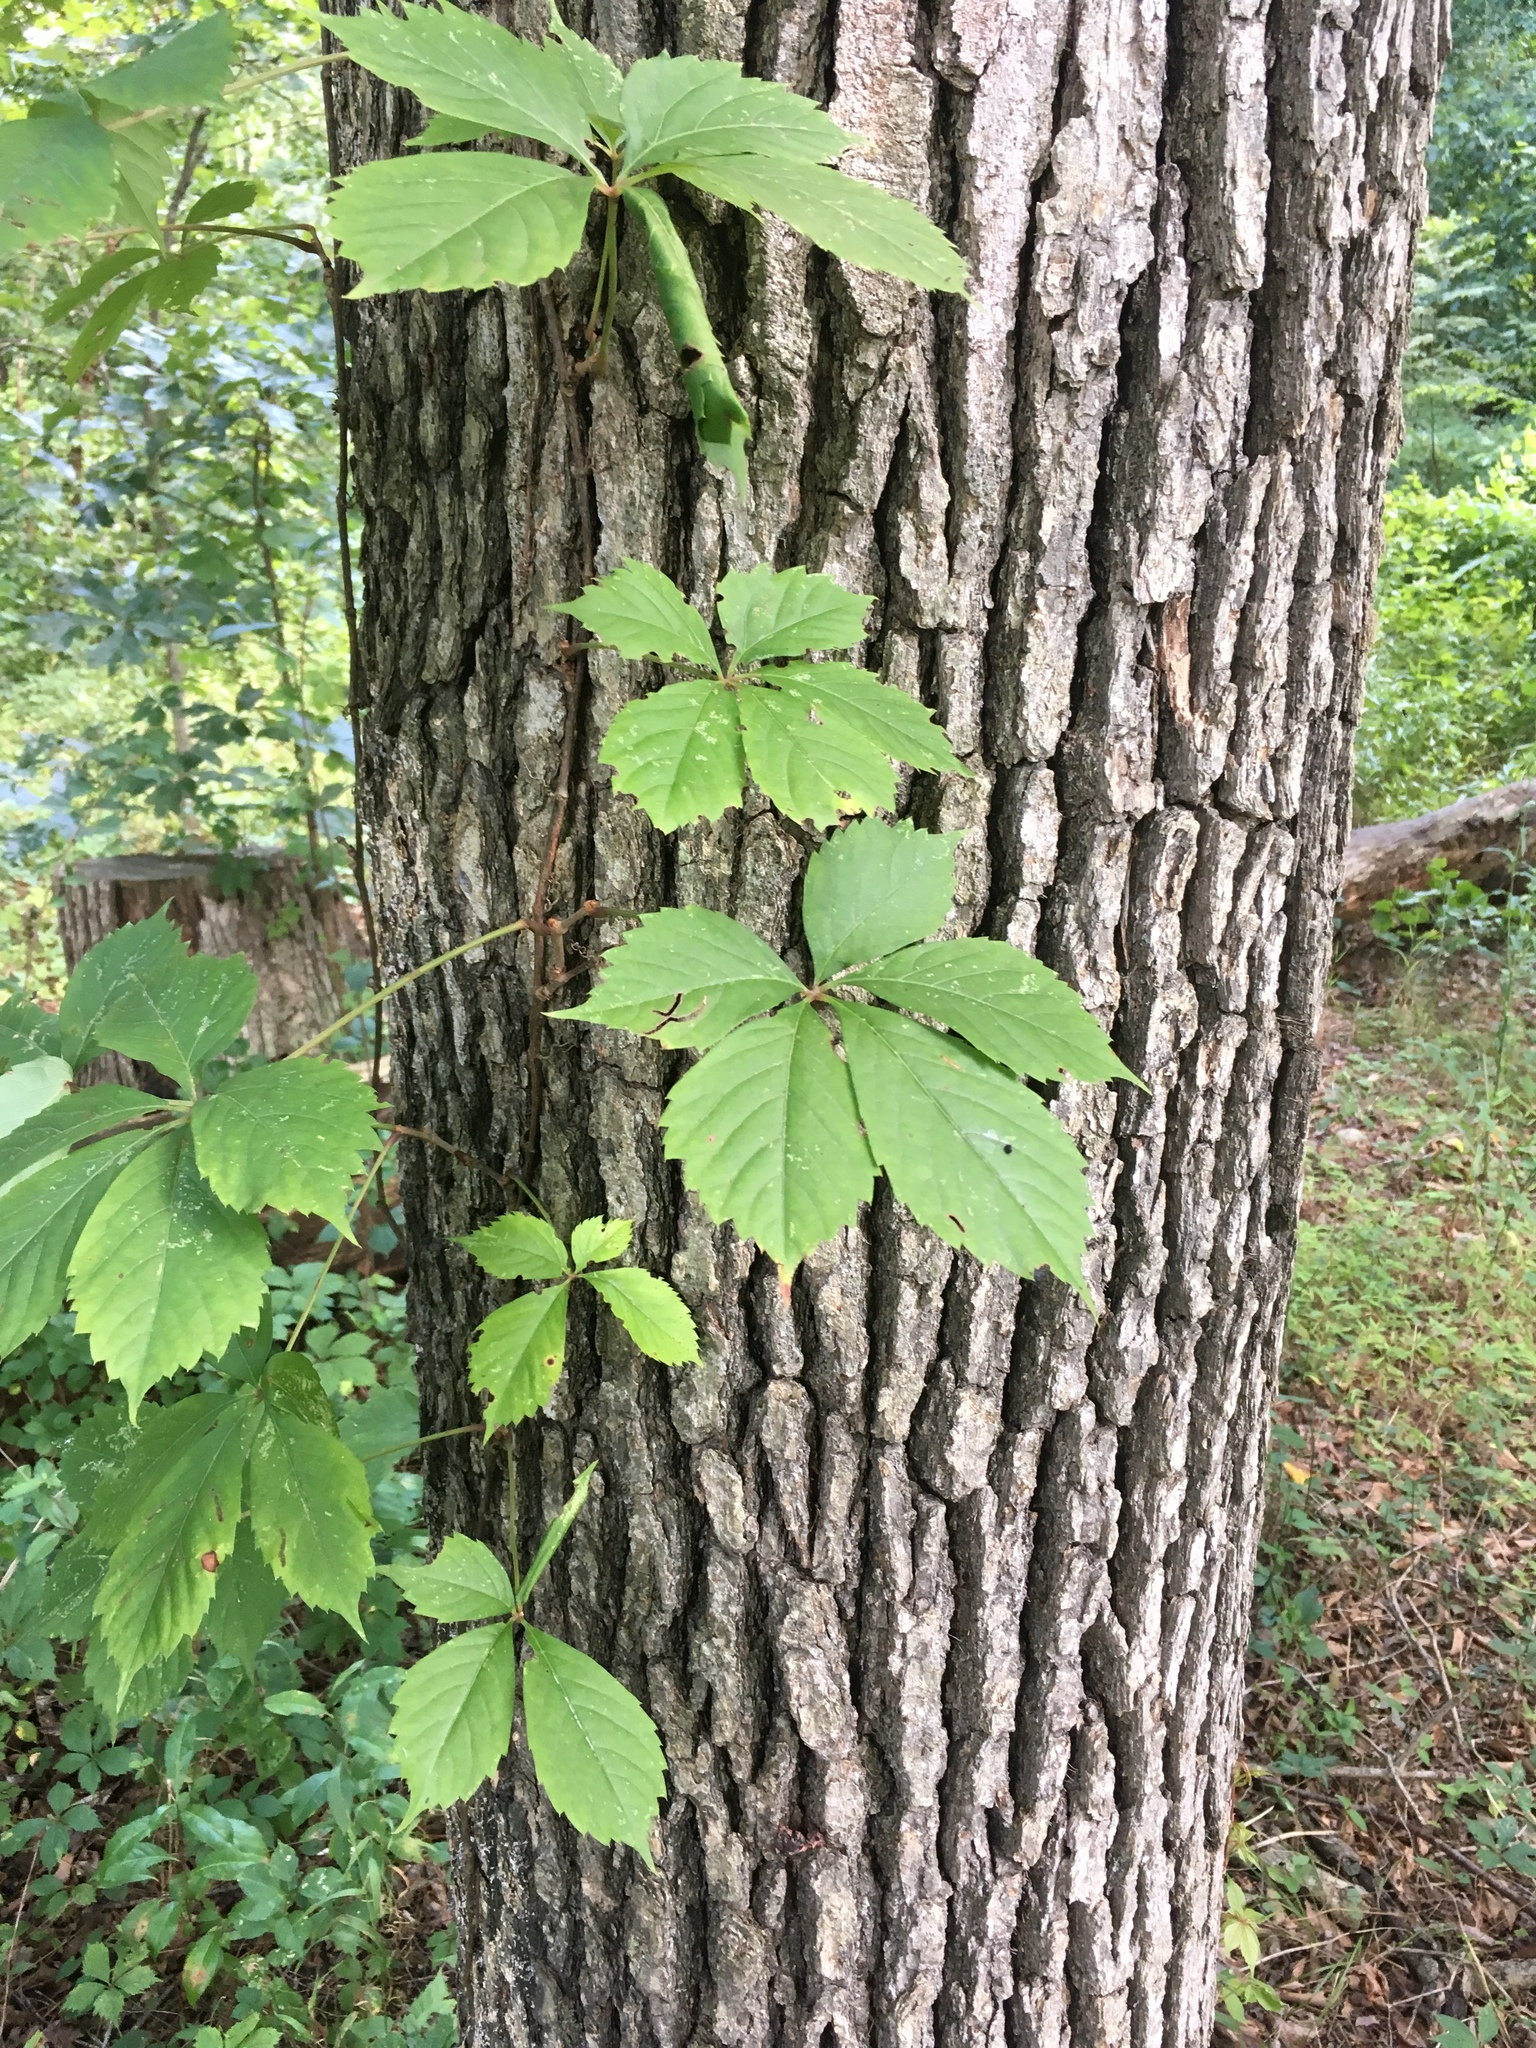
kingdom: Plantae
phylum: Tracheophyta
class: Magnoliopsida
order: Vitales
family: Vitaceae
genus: Parthenocissus
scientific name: Parthenocissus quinquefolia
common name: Virginia-creeper
